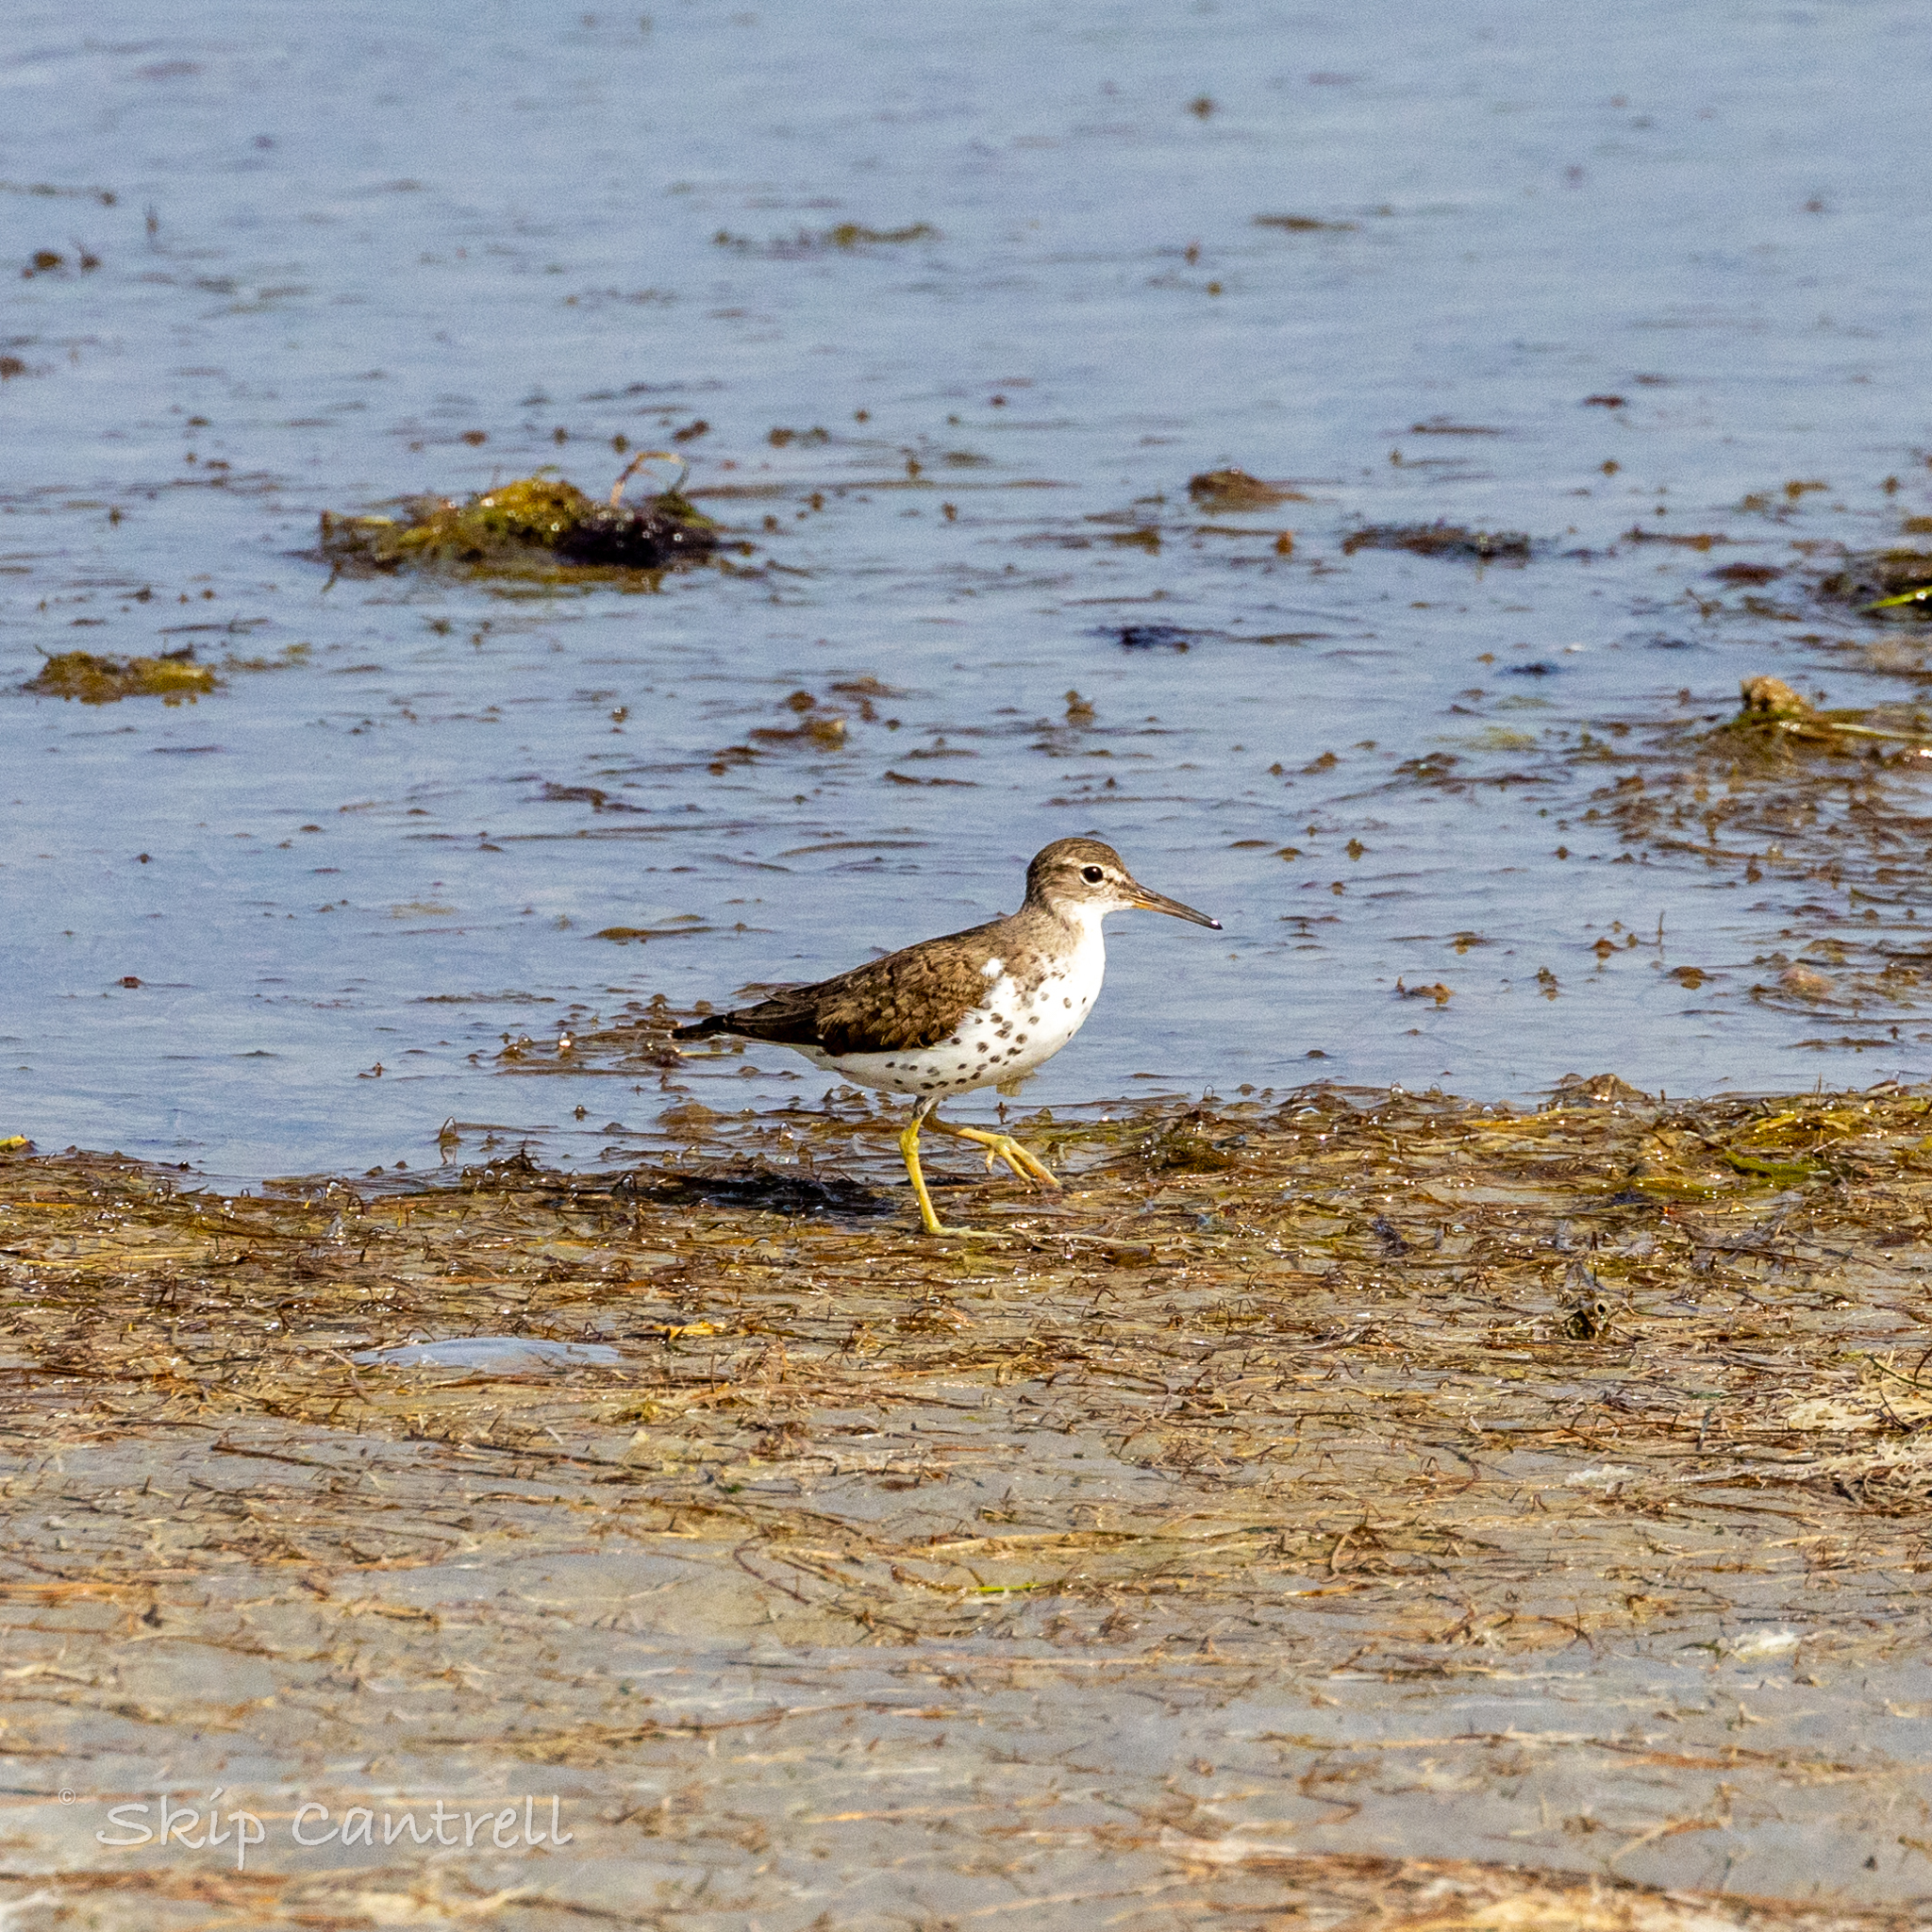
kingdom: Animalia
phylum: Chordata
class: Aves
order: Charadriiformes
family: Scolopacidae
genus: Actitis
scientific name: Actitis macularius
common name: Spotted sandpiper
